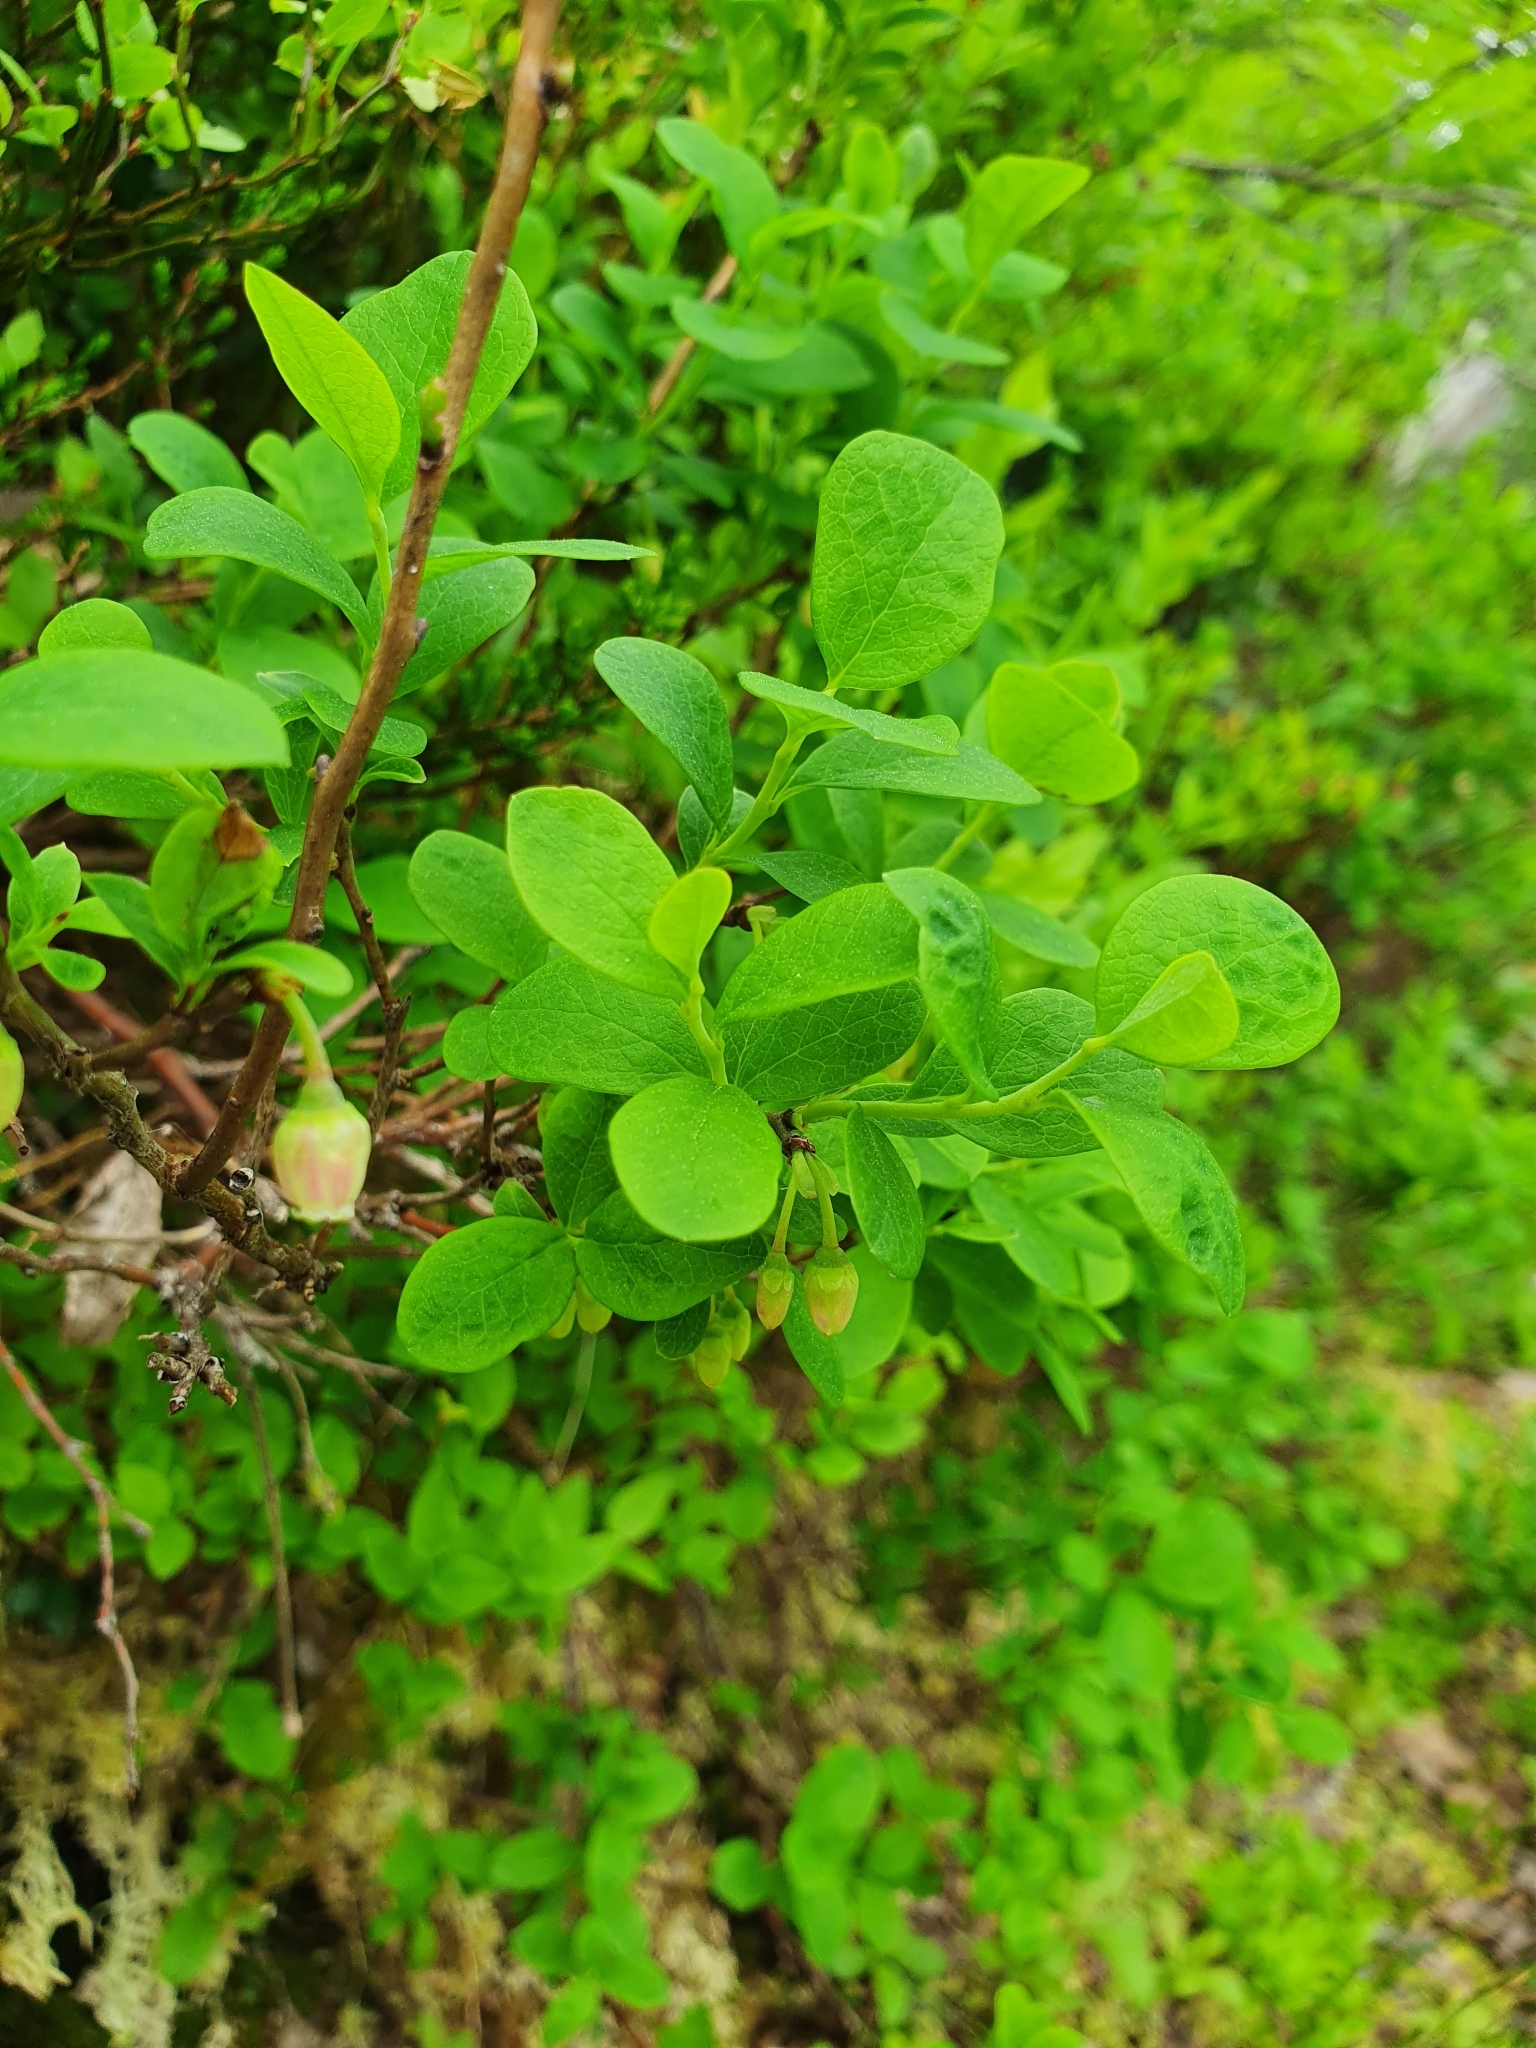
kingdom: Plantae
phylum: Tracheophyta
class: Magnoliopsida
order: Ericales
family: Ericaceae
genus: Vaccinium
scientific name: Vaccinium uliginosum
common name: Bog bilberry
